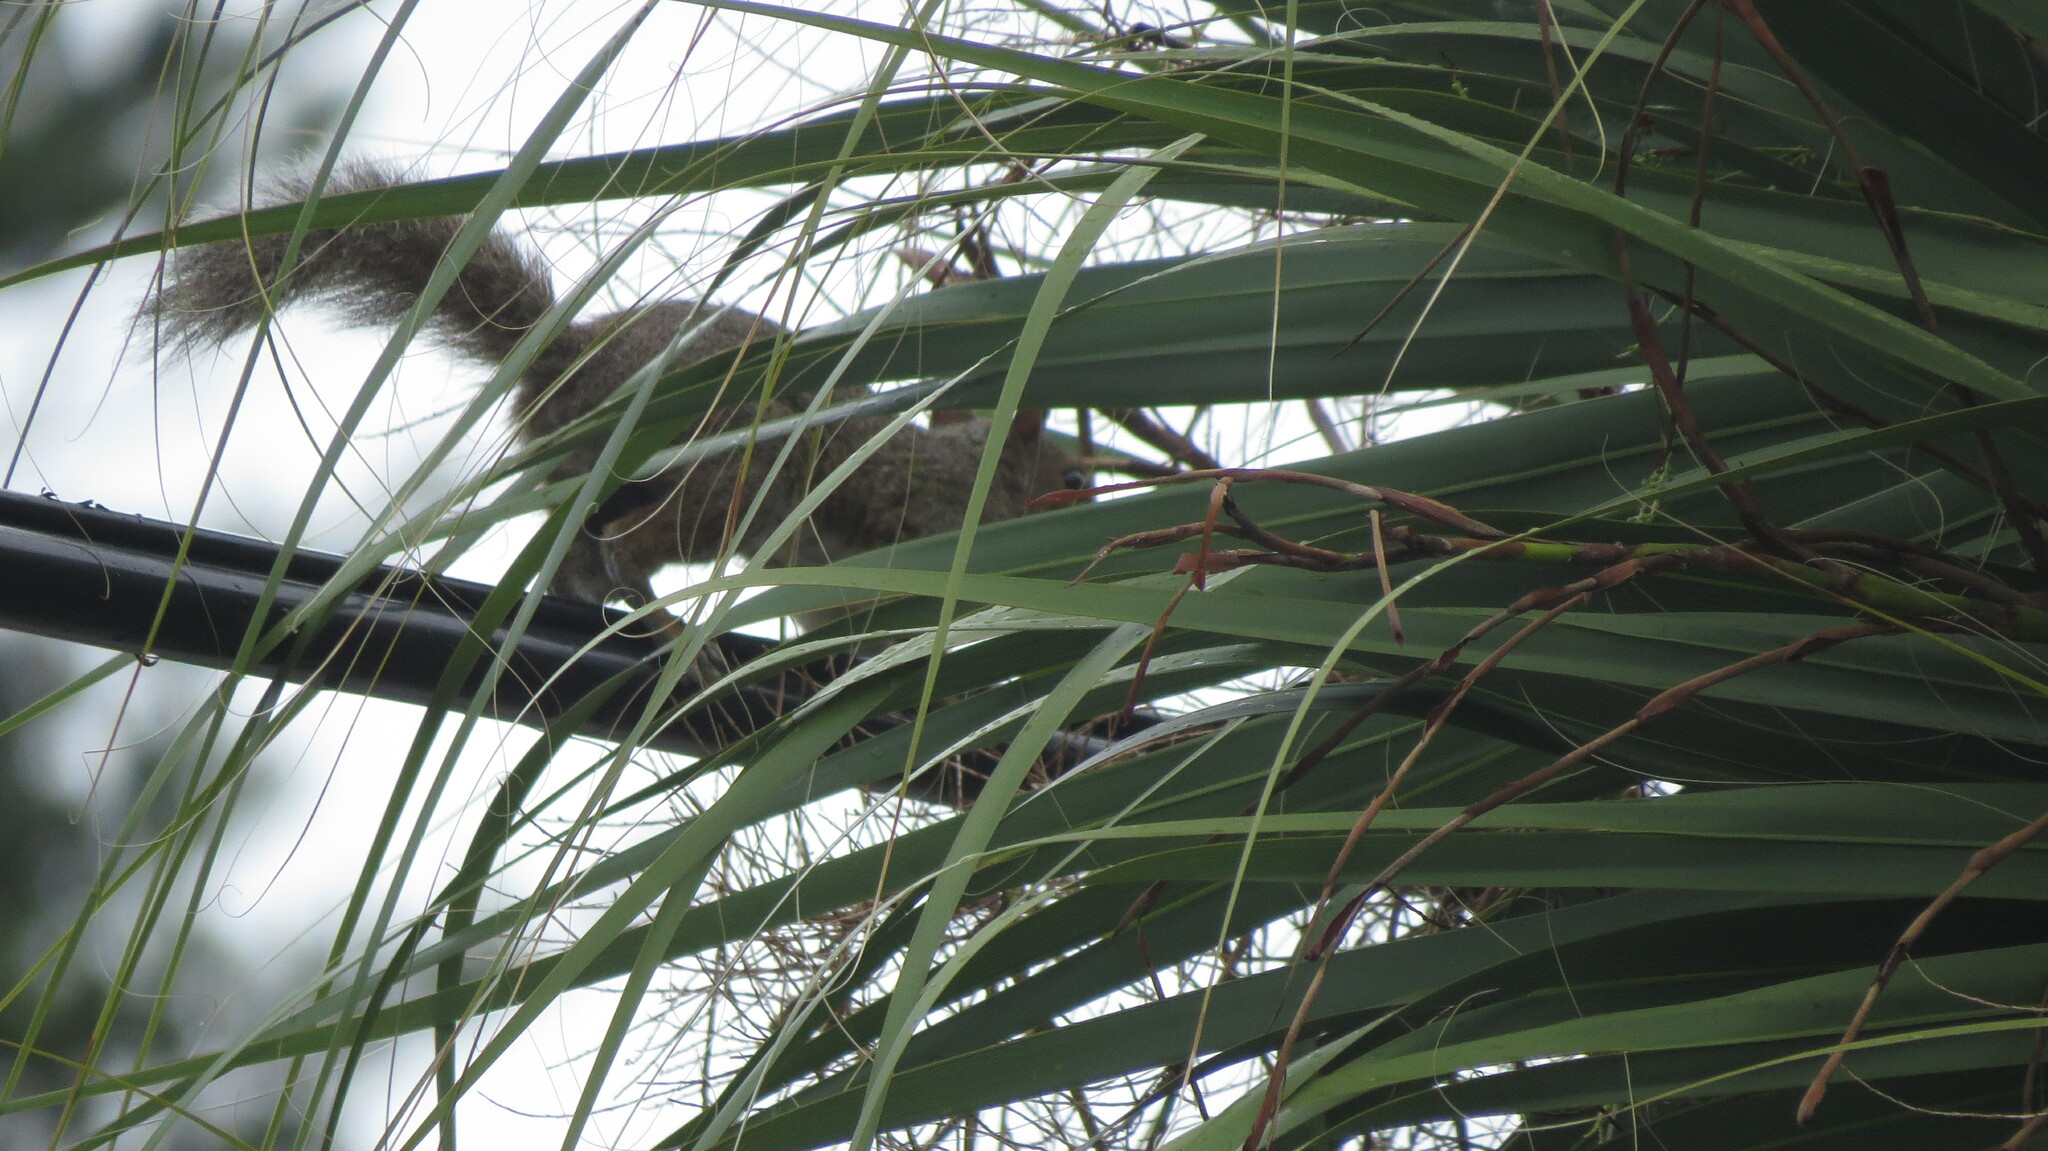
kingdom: Animalia
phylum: Chordata
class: Mammalia
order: Rodentia
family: Sciuridae
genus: Sciurus
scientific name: Sciurus carolinensis
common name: Eastern gray squirrel
